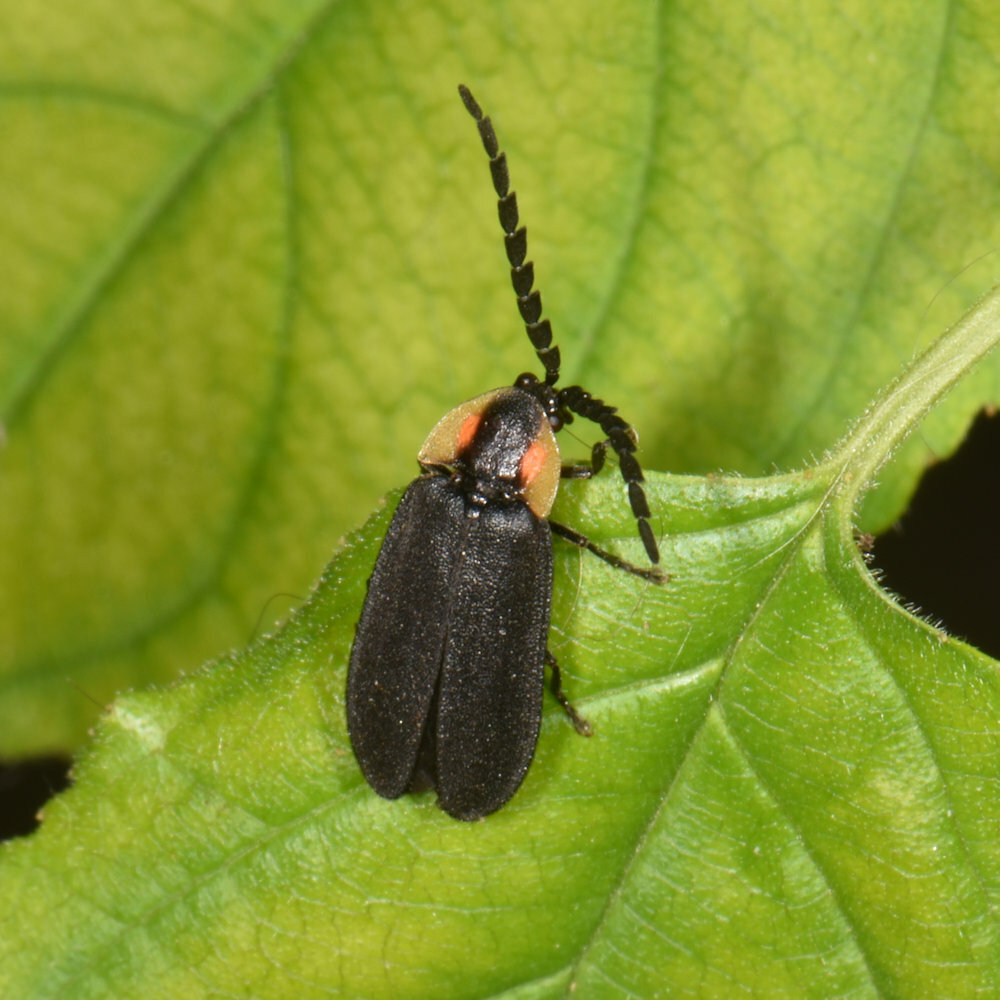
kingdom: Animalia
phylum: Arthropoda
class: Insecta
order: Coleoptera
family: Lampyridae
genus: Lucidota
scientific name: Lucidota atra
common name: Black firefly
